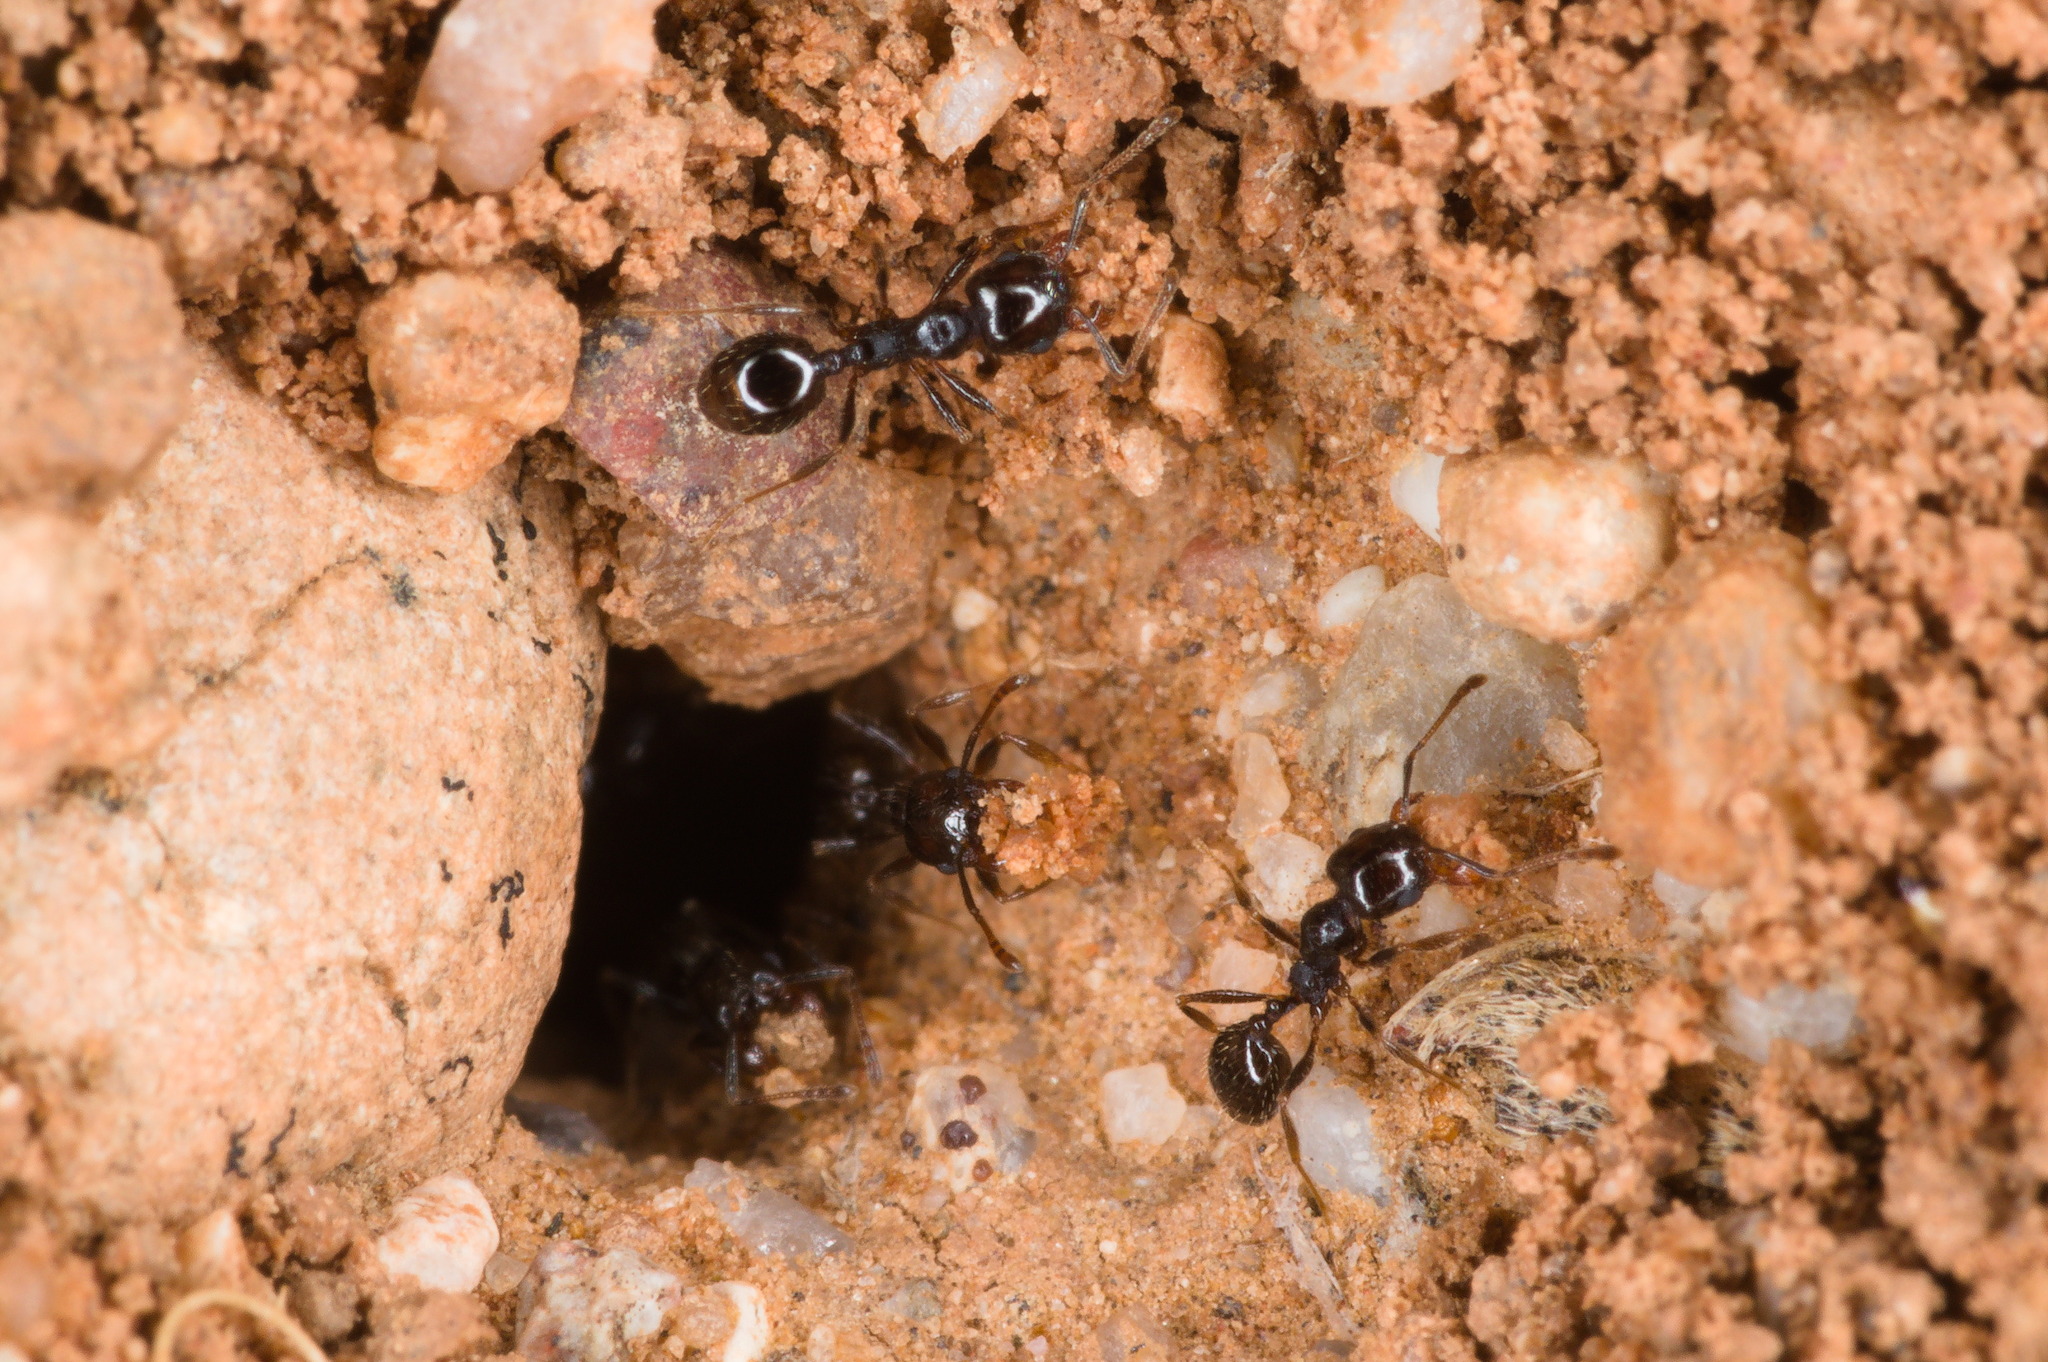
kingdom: Animalia
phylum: Arthropoda
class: Insecta
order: Hymenoptera
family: Formicidae
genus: Pheidole
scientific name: Pheidole xerophila
